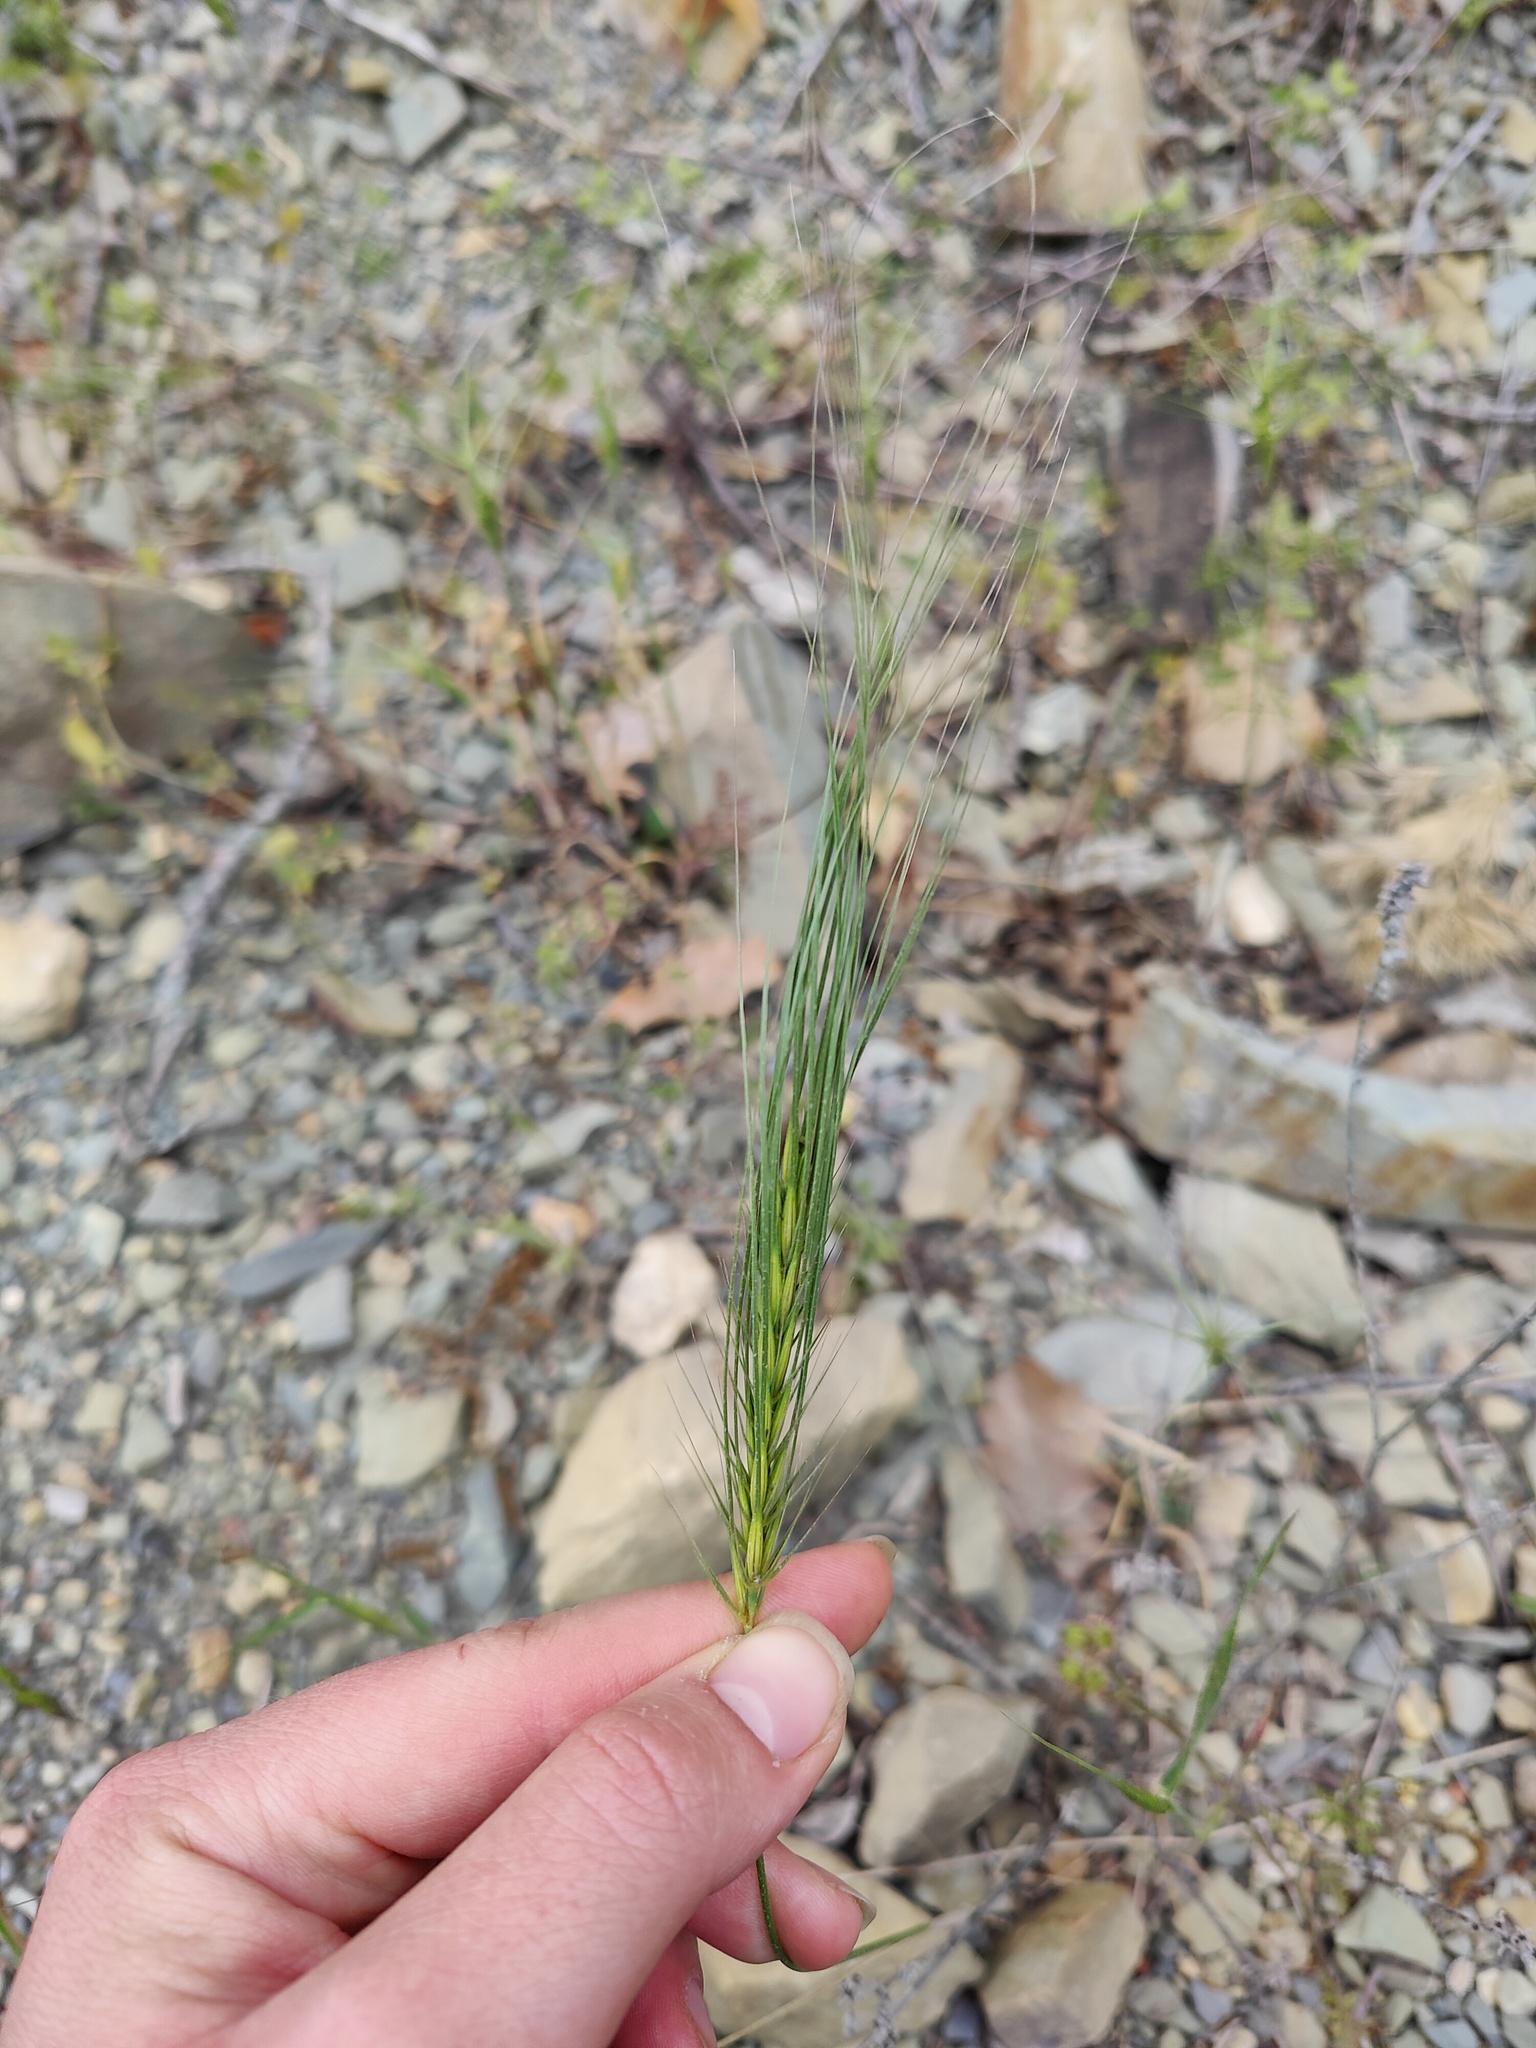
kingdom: Plantae
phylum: Tracheophyta
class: Liliopsida
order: Poales
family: Poaceae
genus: Taeniatherum
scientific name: Taeniatherum caput-medusae
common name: Medusahead
